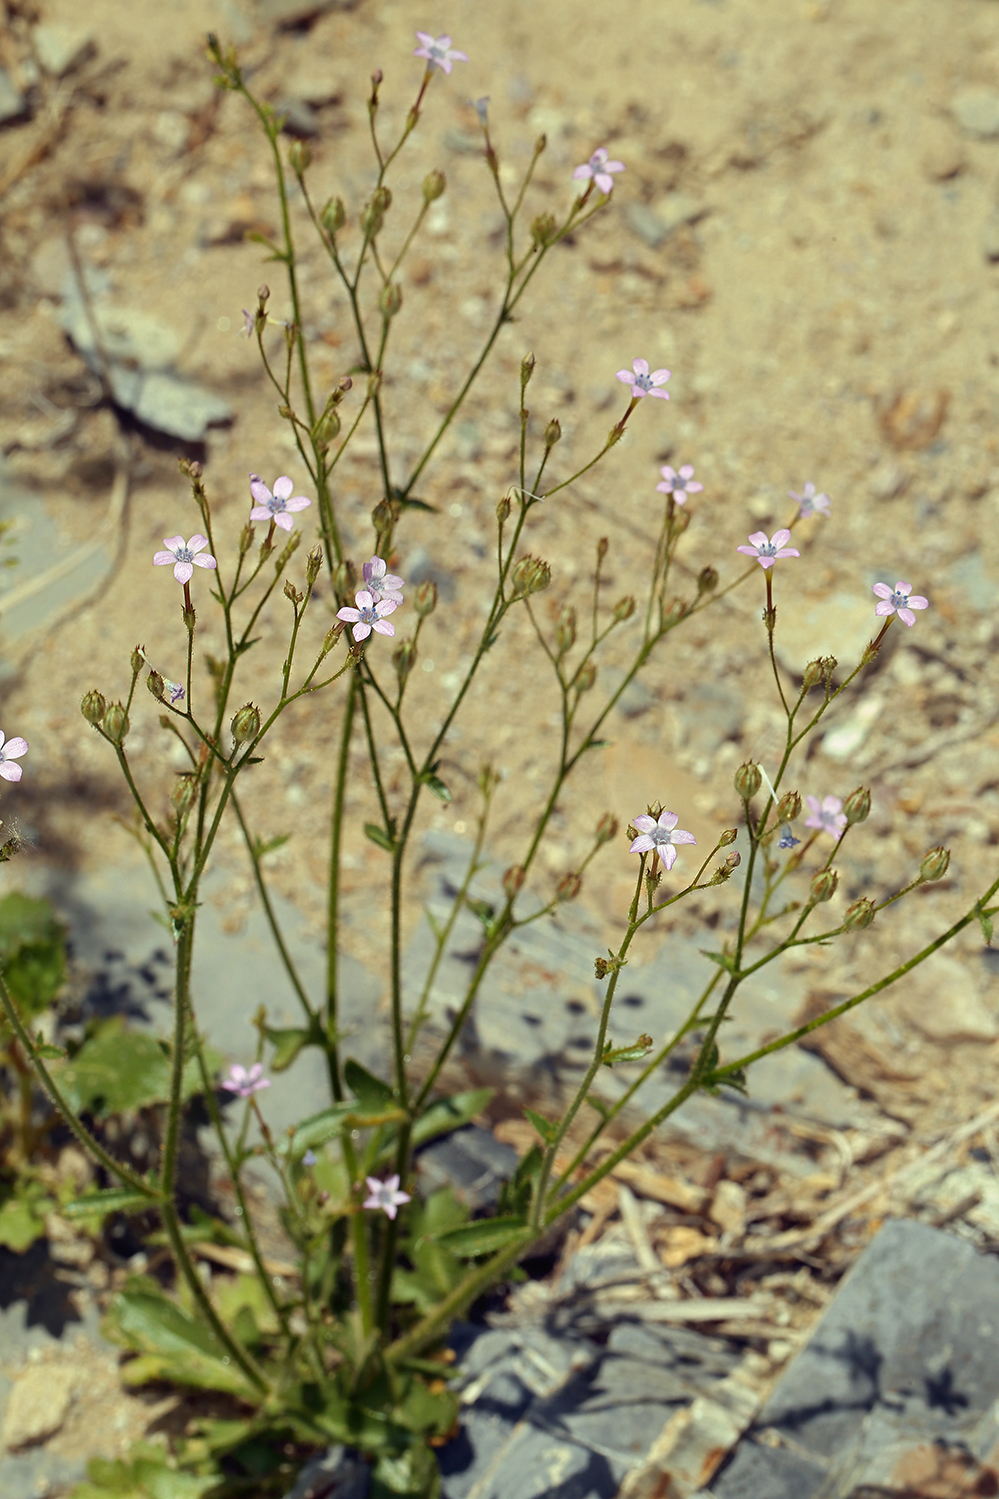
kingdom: Plantae
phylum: Tracheophyta
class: Magnoliopsida
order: Ericales
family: Polemoniaceae
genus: Gilia
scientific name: Gilia scopulorum
